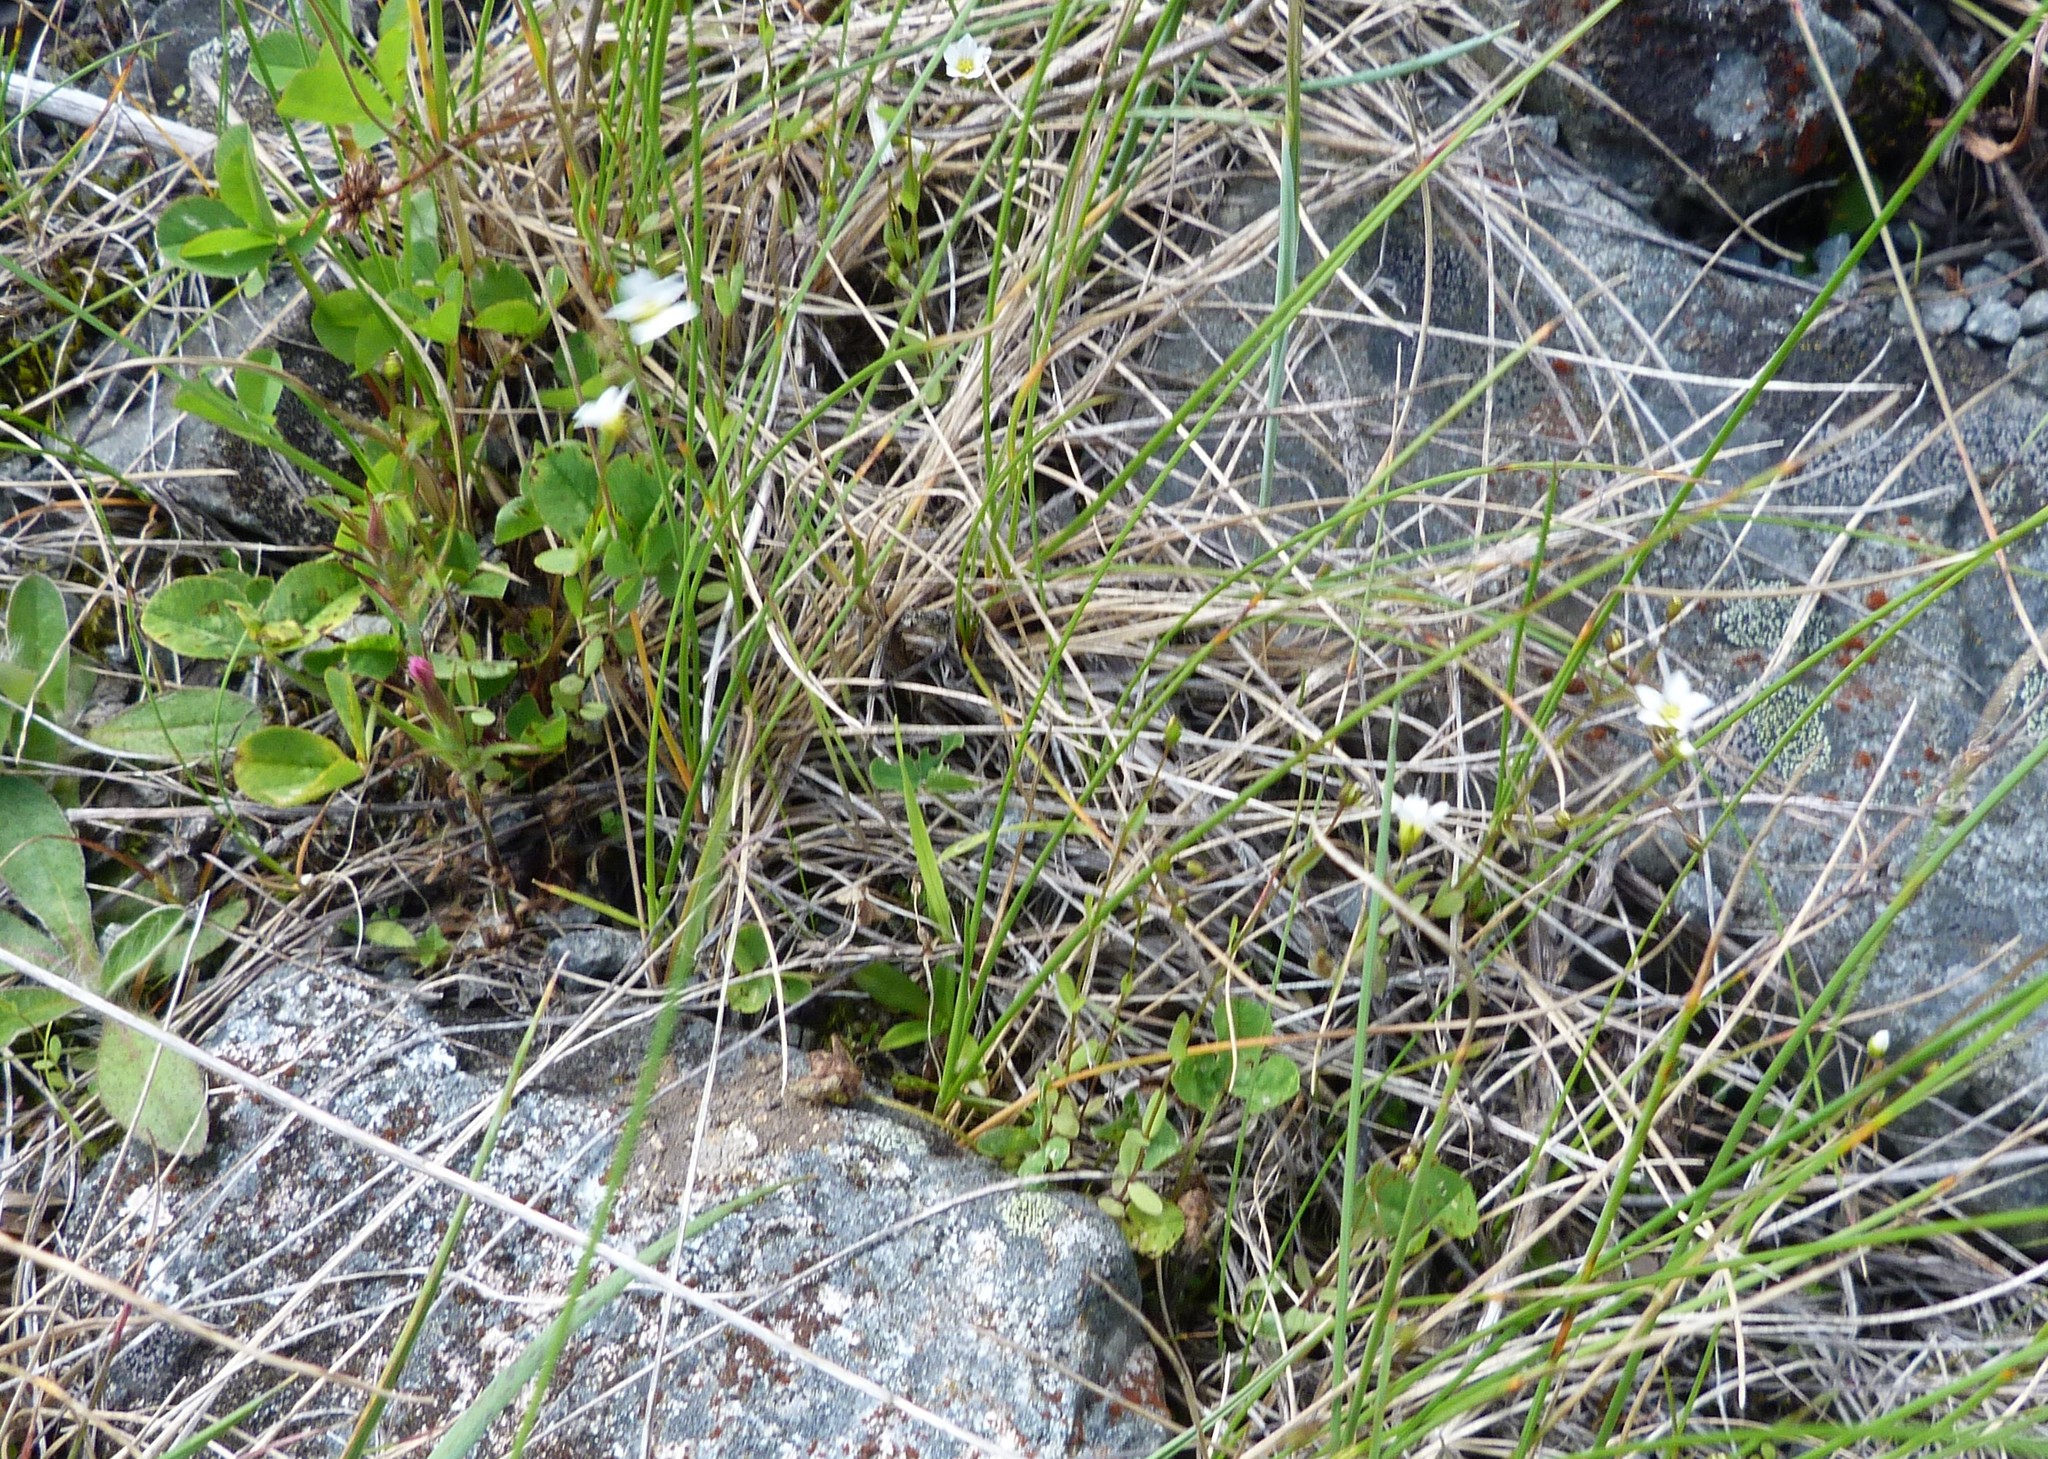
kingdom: Plantae
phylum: Tracheophyta
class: Magnoliopsida
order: Malpighiales
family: Linaceae
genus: Linum
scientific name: Linum catharticum
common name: Fairy flax
